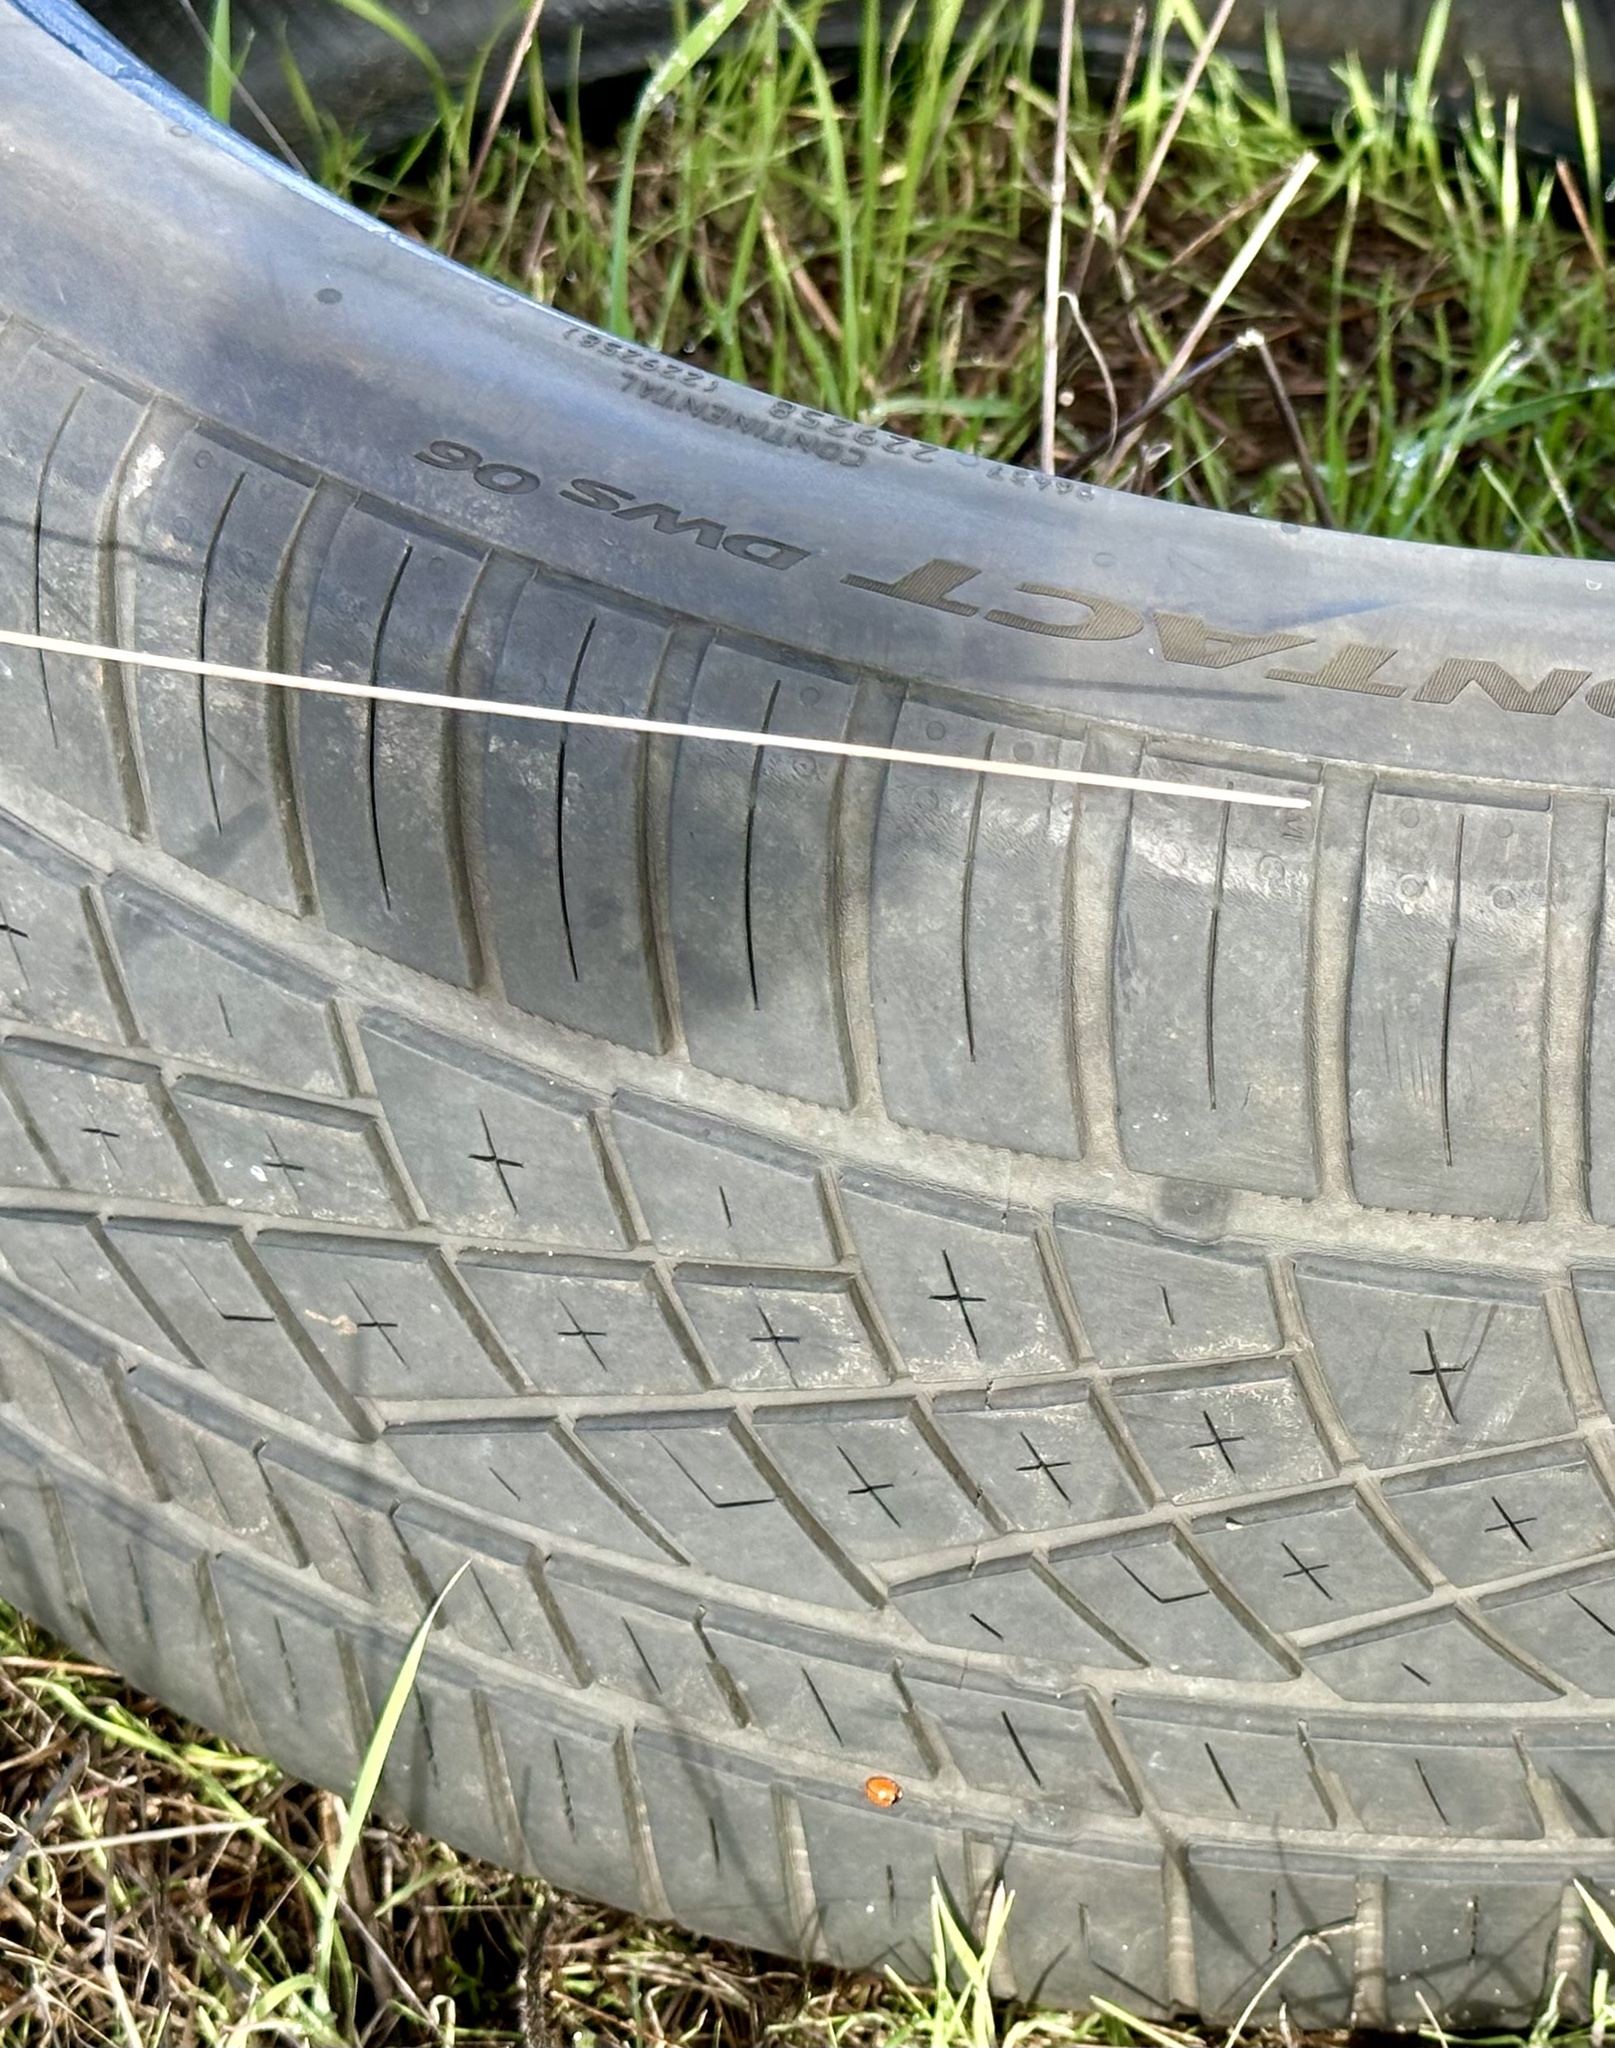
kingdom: Animalia
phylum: Arthropoda
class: Insecta
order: Coleoptera
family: Coccinellidae
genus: Coccinella
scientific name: Coccinella californica
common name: Lady beetle
